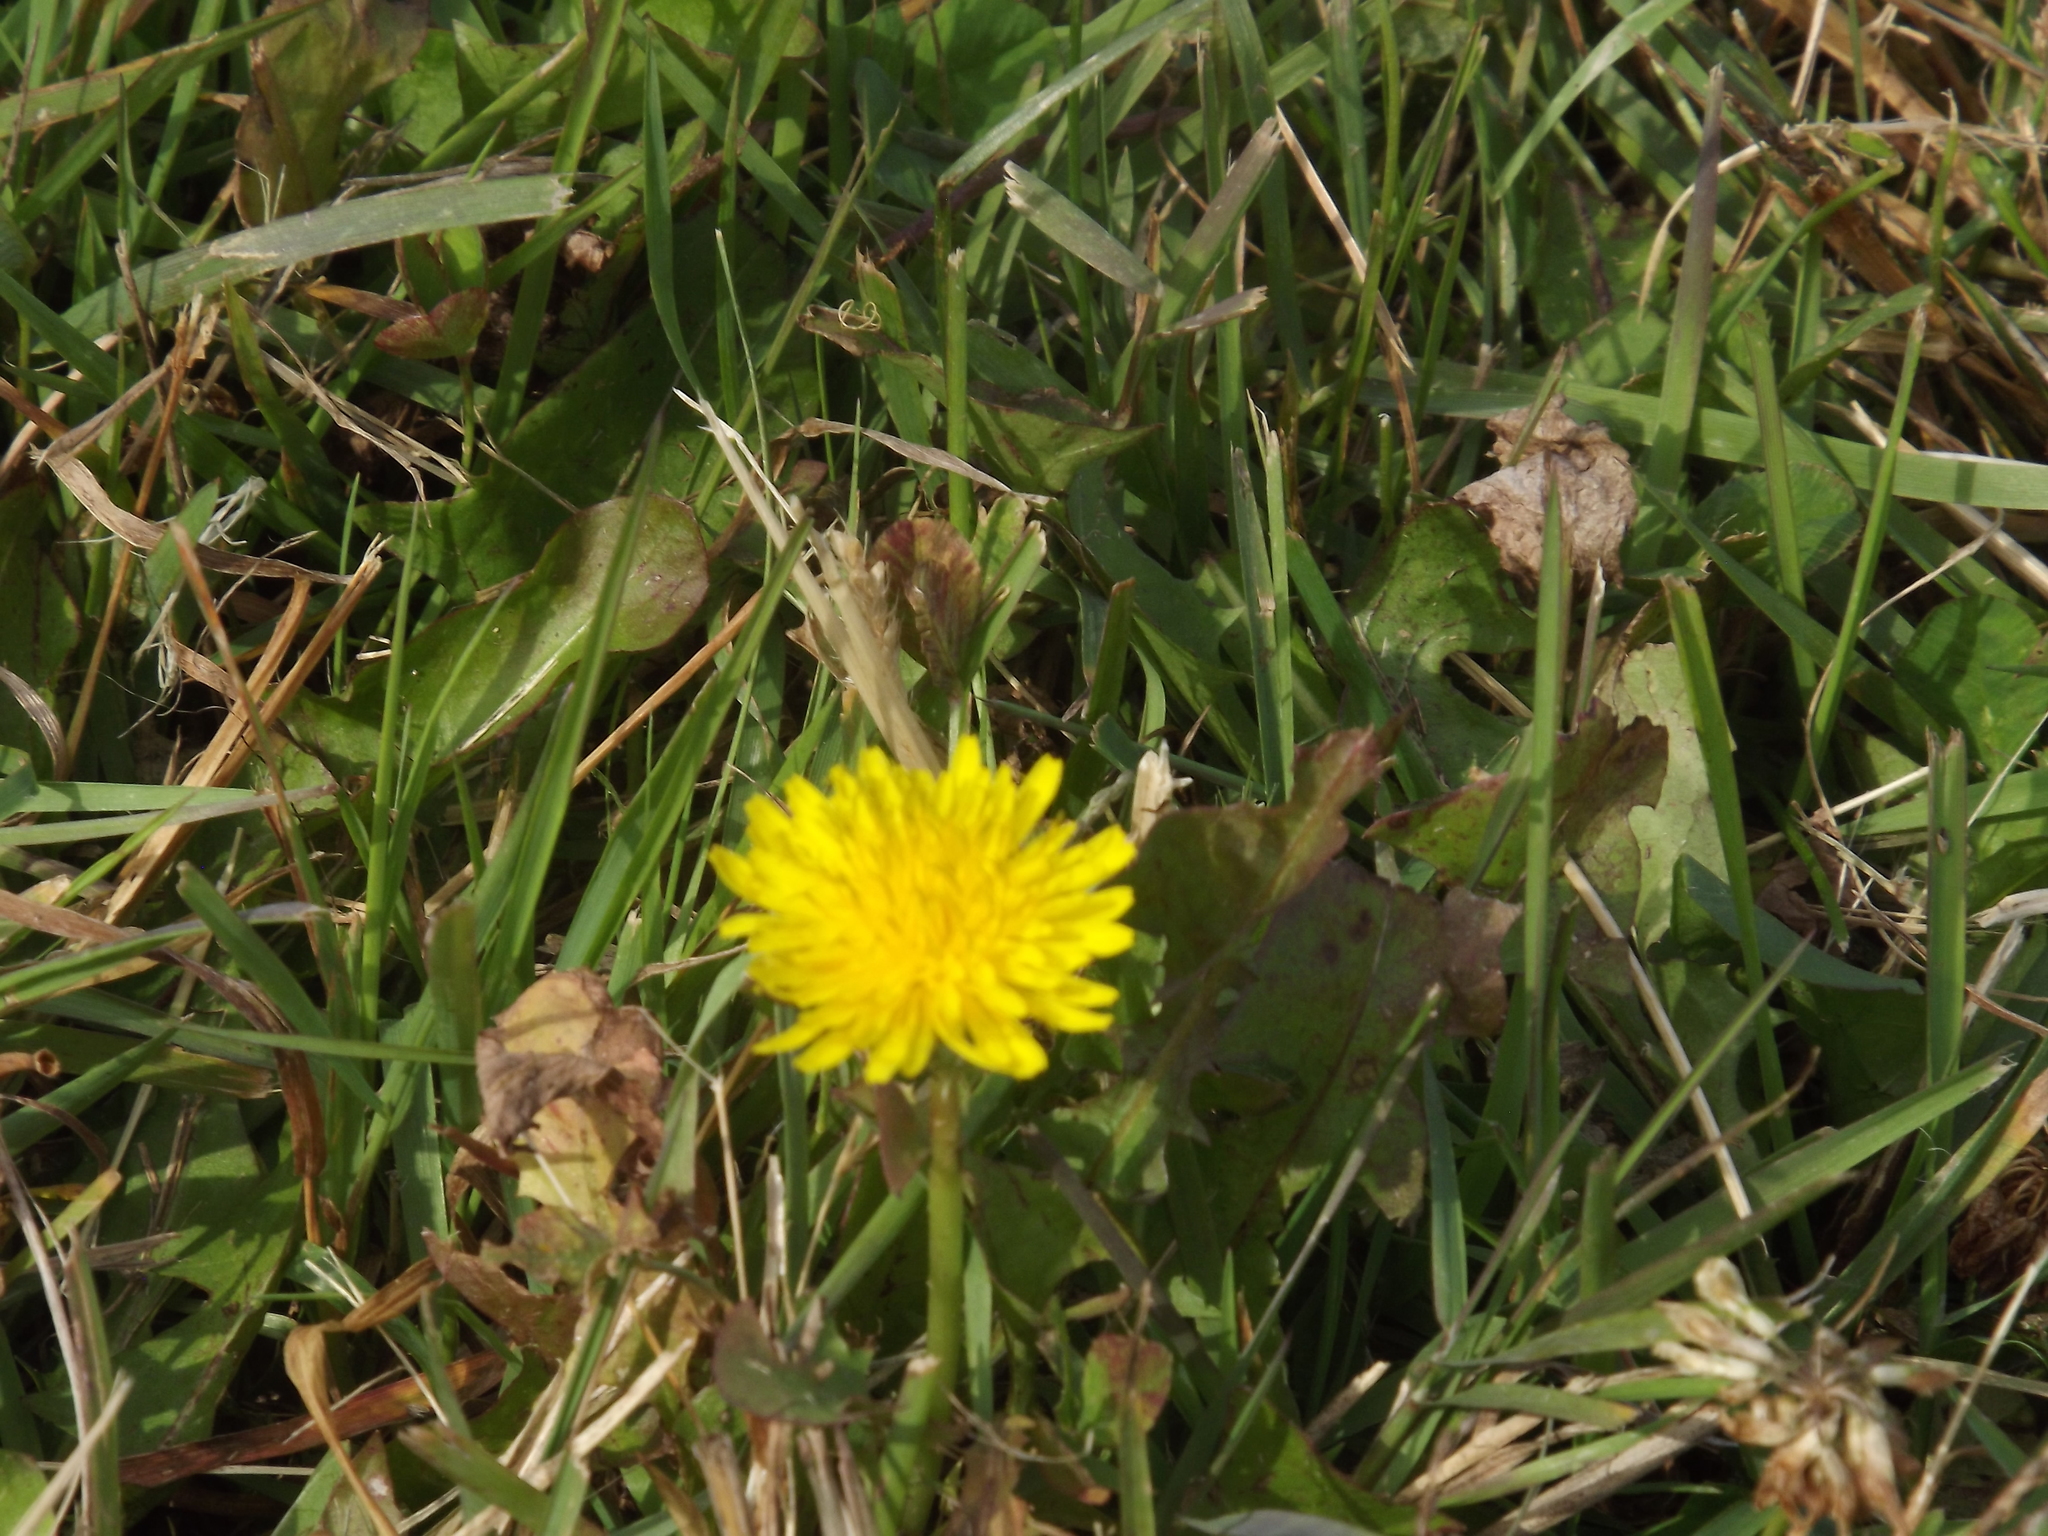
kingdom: Plantae
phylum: Tracheophyta
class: Magnoliopsida
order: Asterales
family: Asteraceae
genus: Taraxacum
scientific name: Taraxacum officinale
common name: Common dandelion
